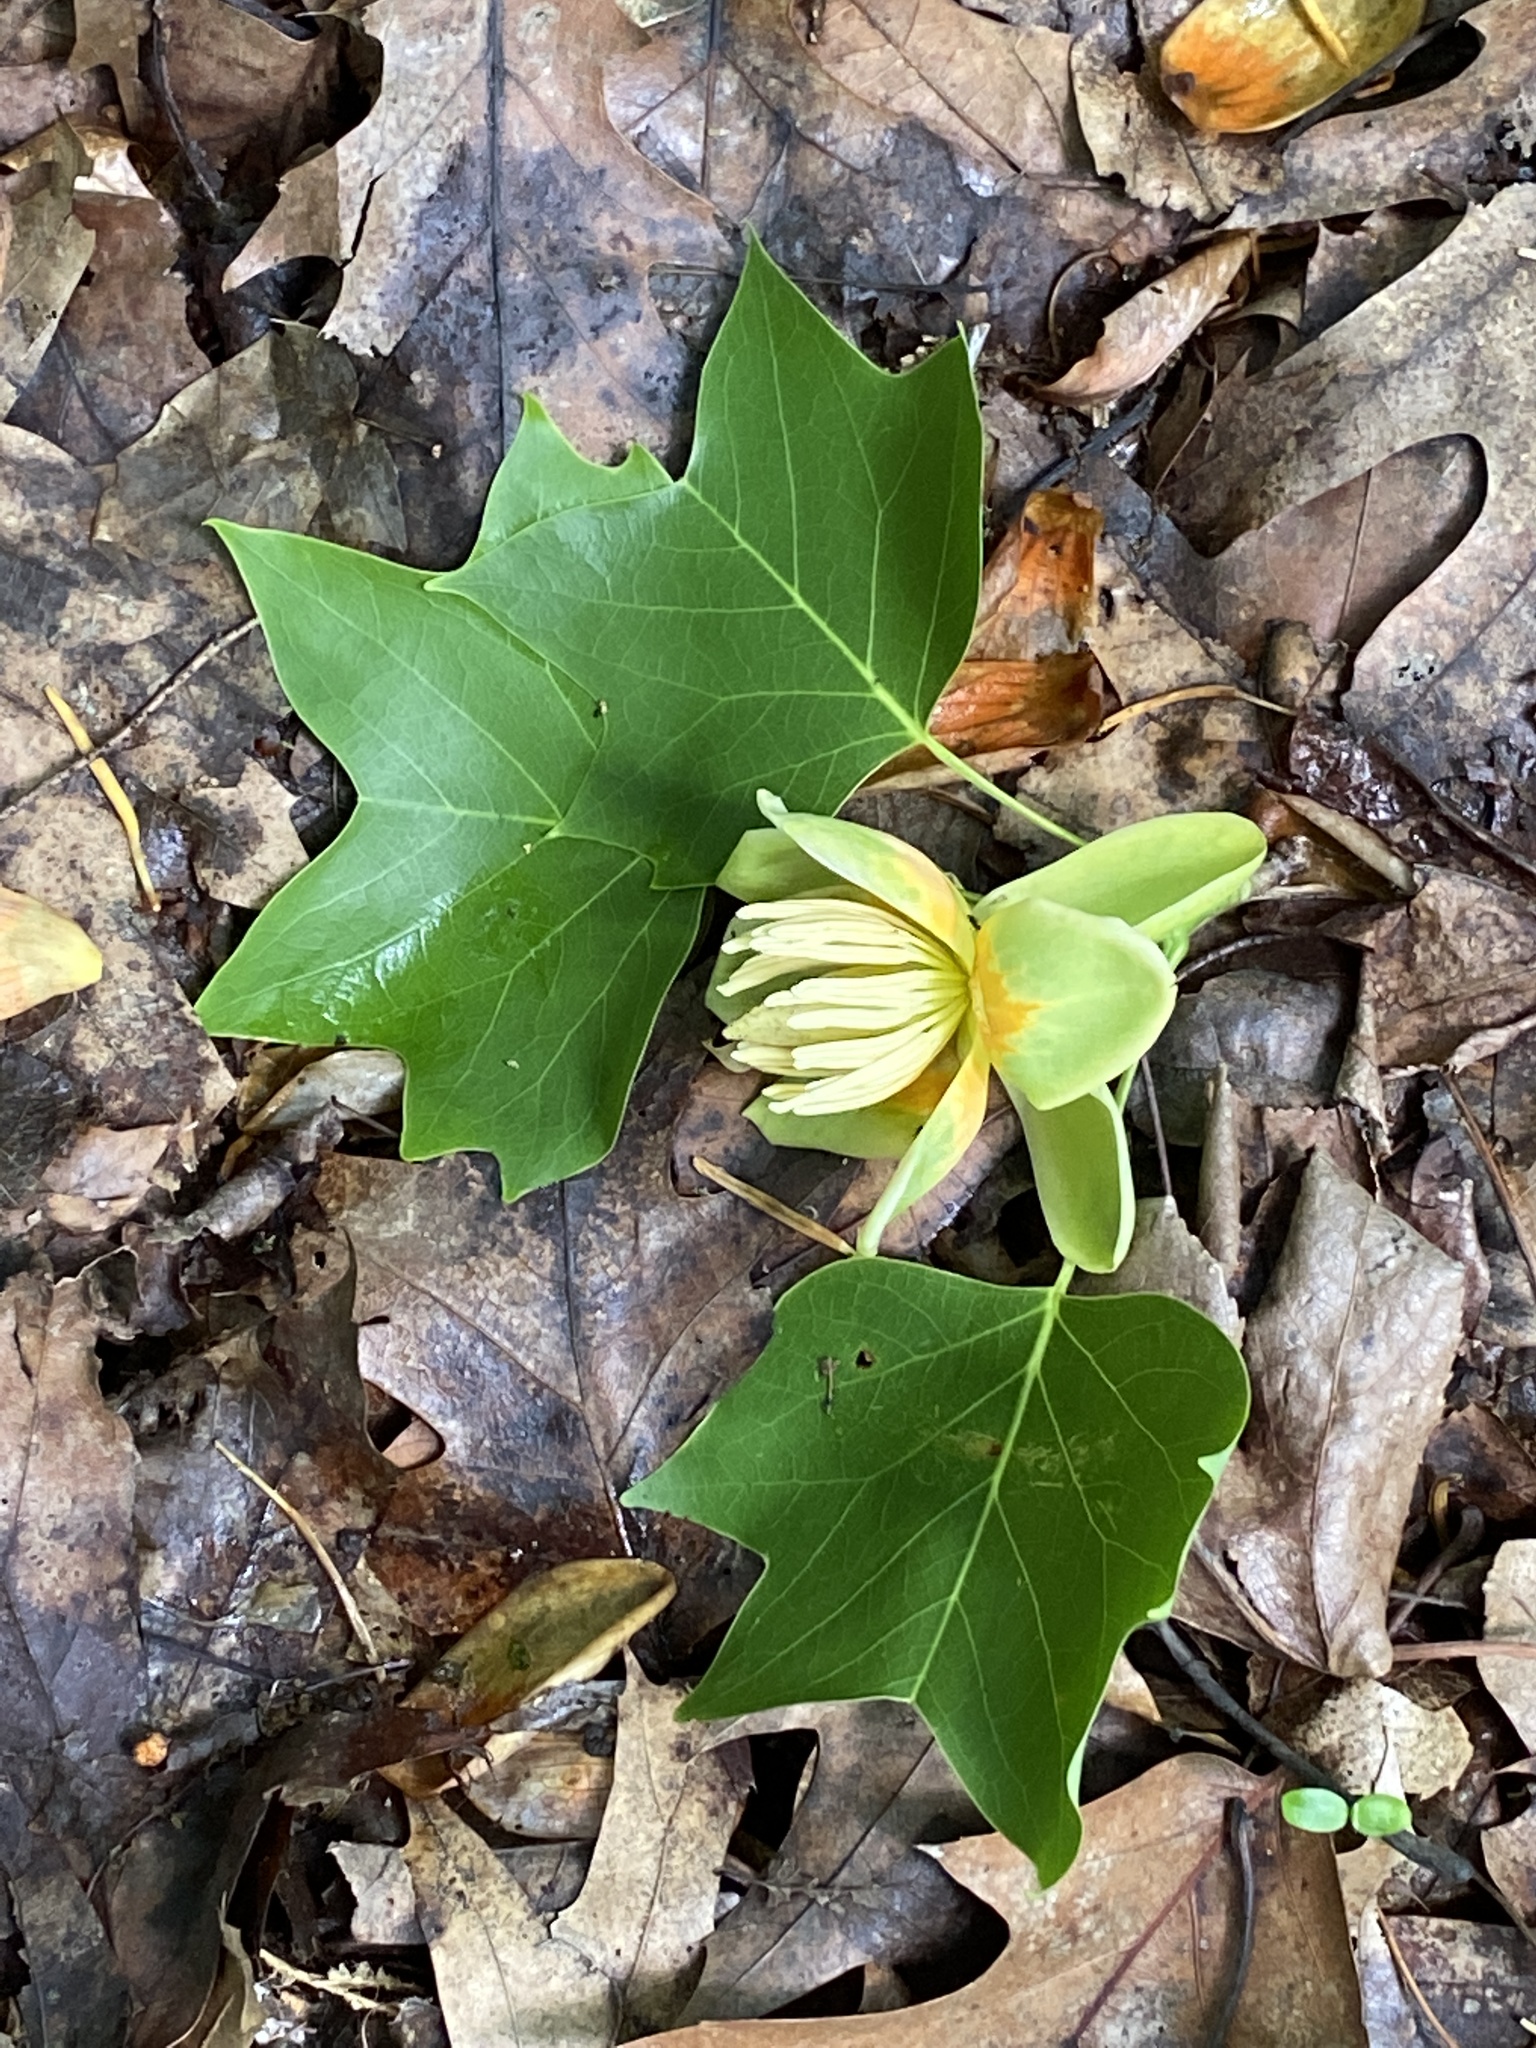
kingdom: Plantae
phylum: Tracheophyta
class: Magnoliopsida
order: Magnoliales
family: Magnoliaceae
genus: Liriodendron
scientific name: Liriodendron tulipifera
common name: Tulip tree
